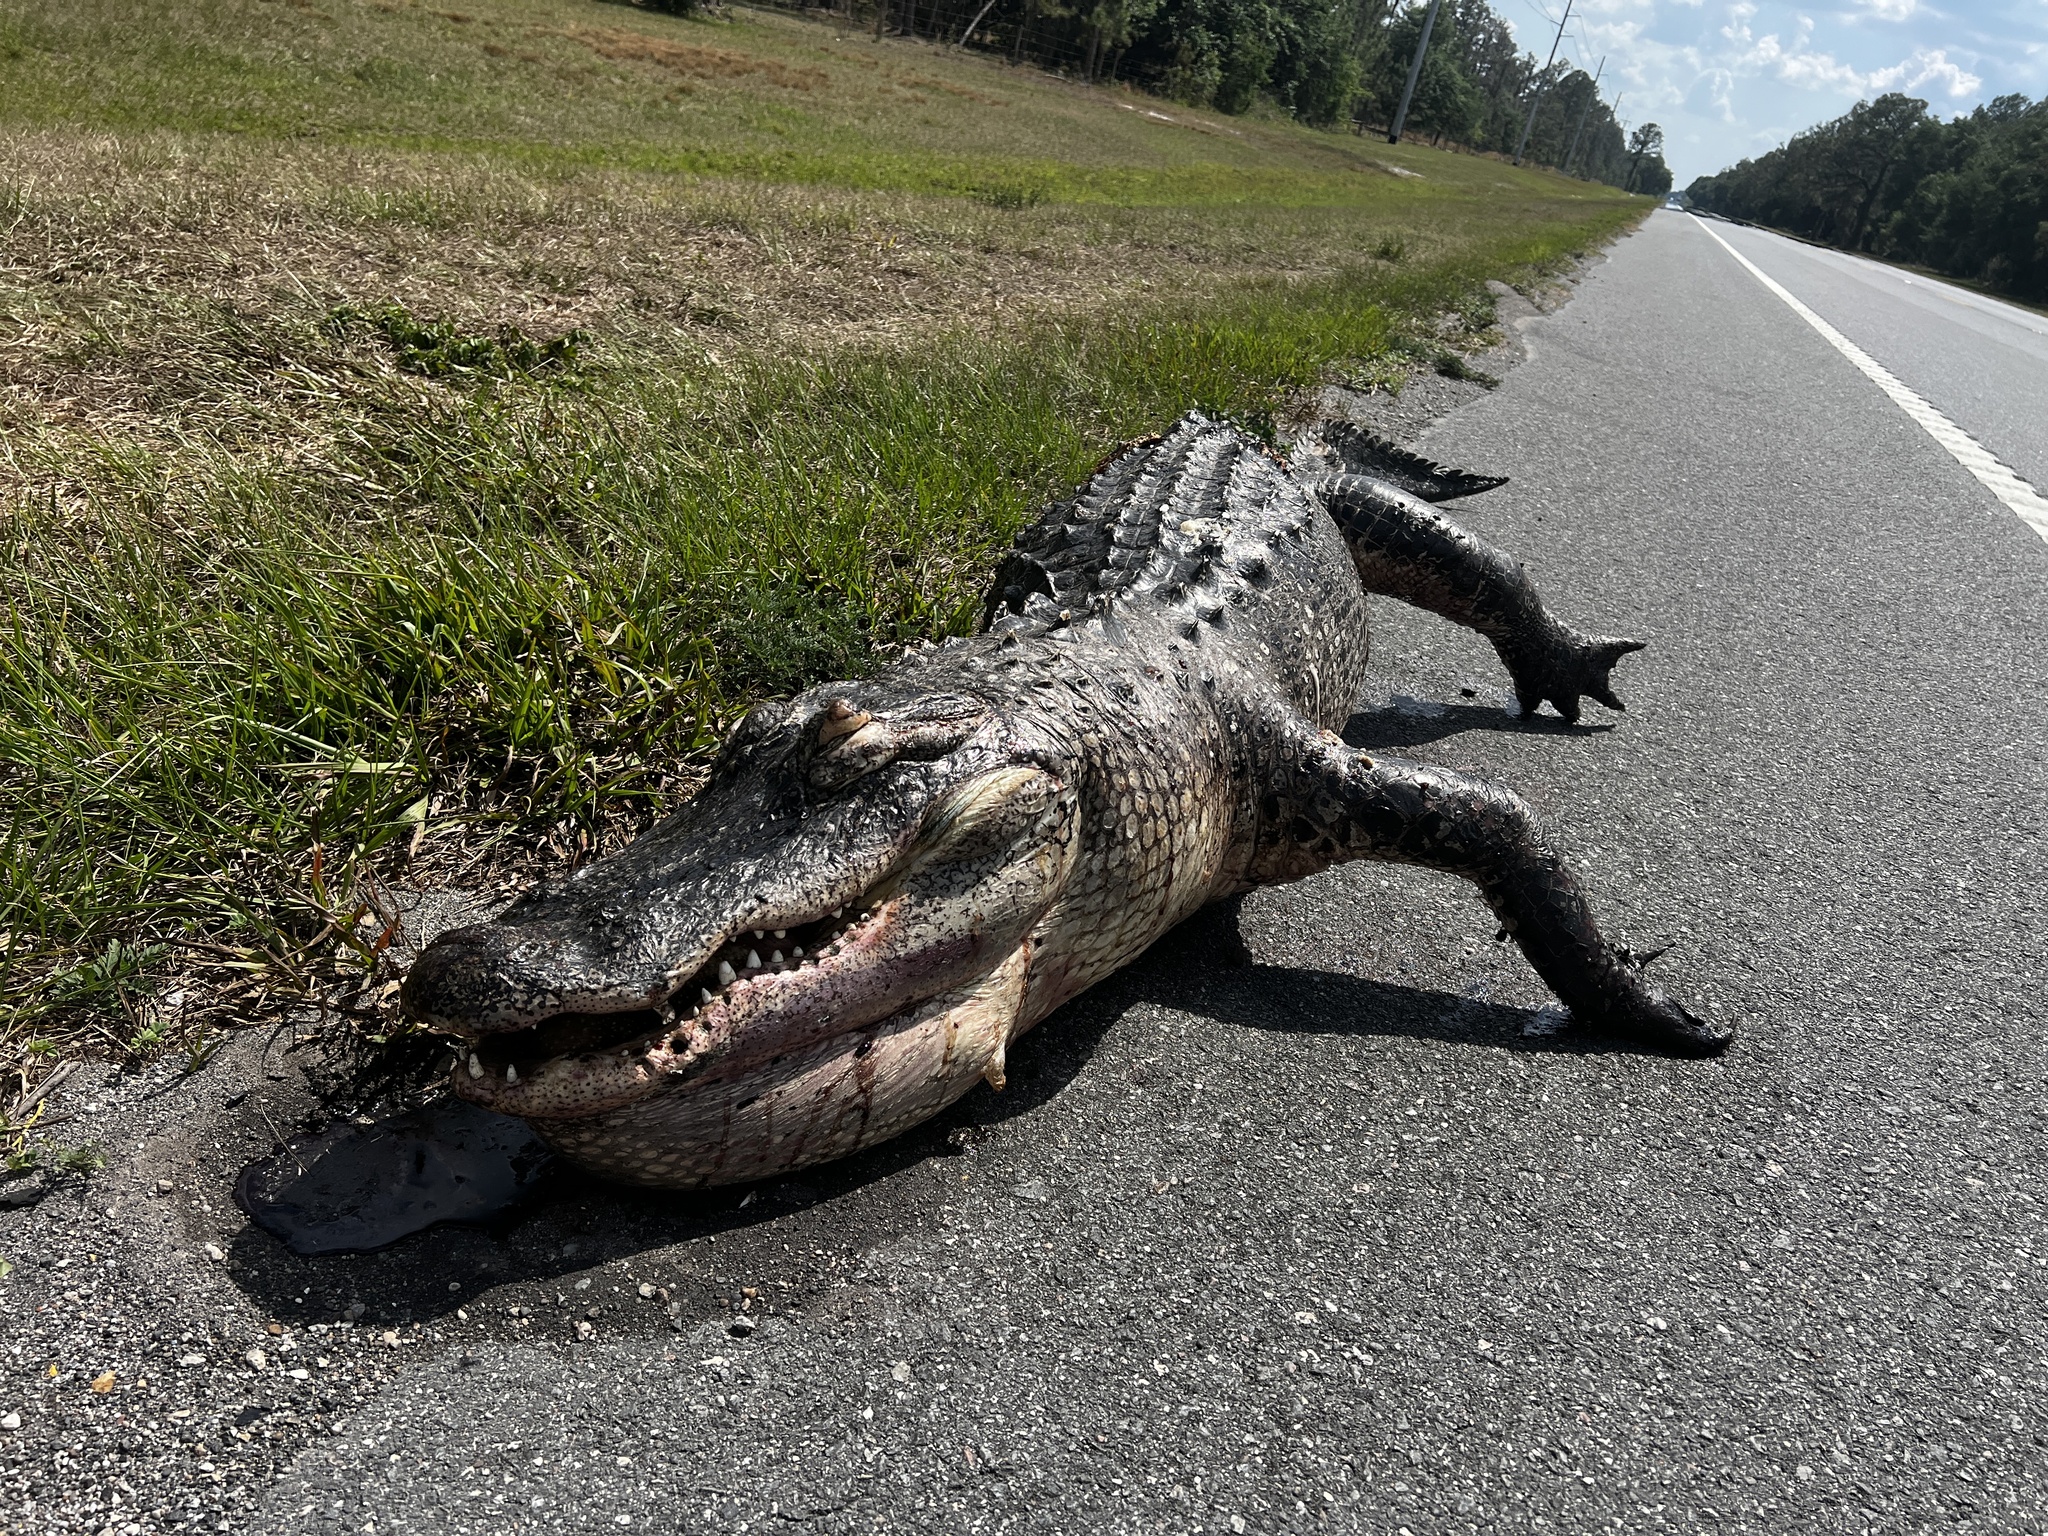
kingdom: Animalia
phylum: Chordata
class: Crocodylia
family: Alligatoridae
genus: Alligator
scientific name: Alligator mississippiensis
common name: American alligator
